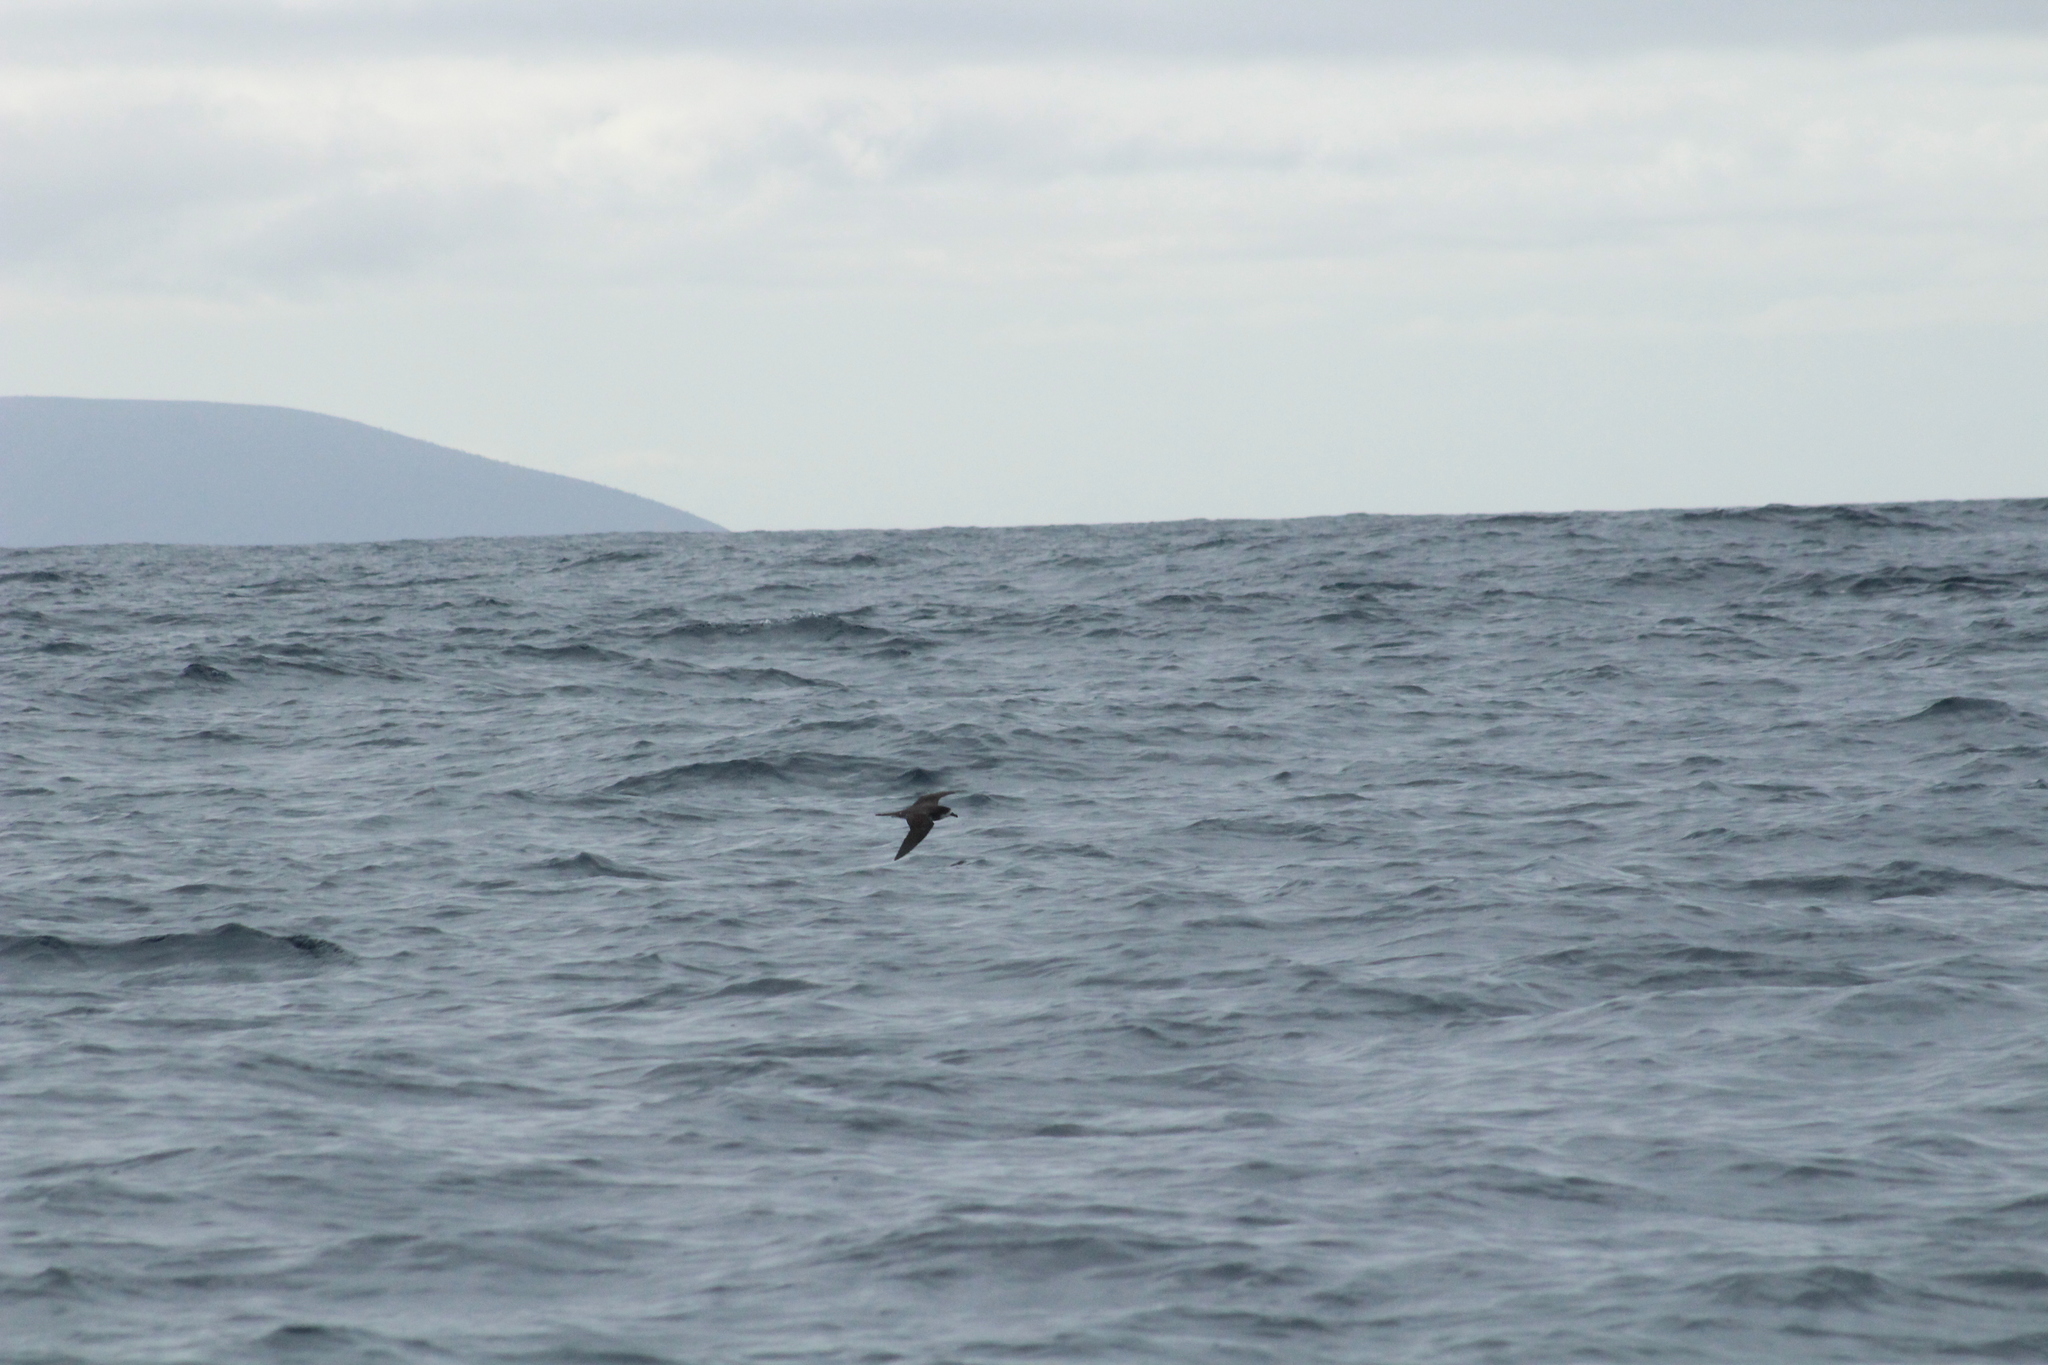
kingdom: Animalia
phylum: Chordata
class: Aves
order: Procellariiformes
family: Procellariidae
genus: Pterodroma
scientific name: Pterodroma phaeopygia
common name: Galapagos petrel
